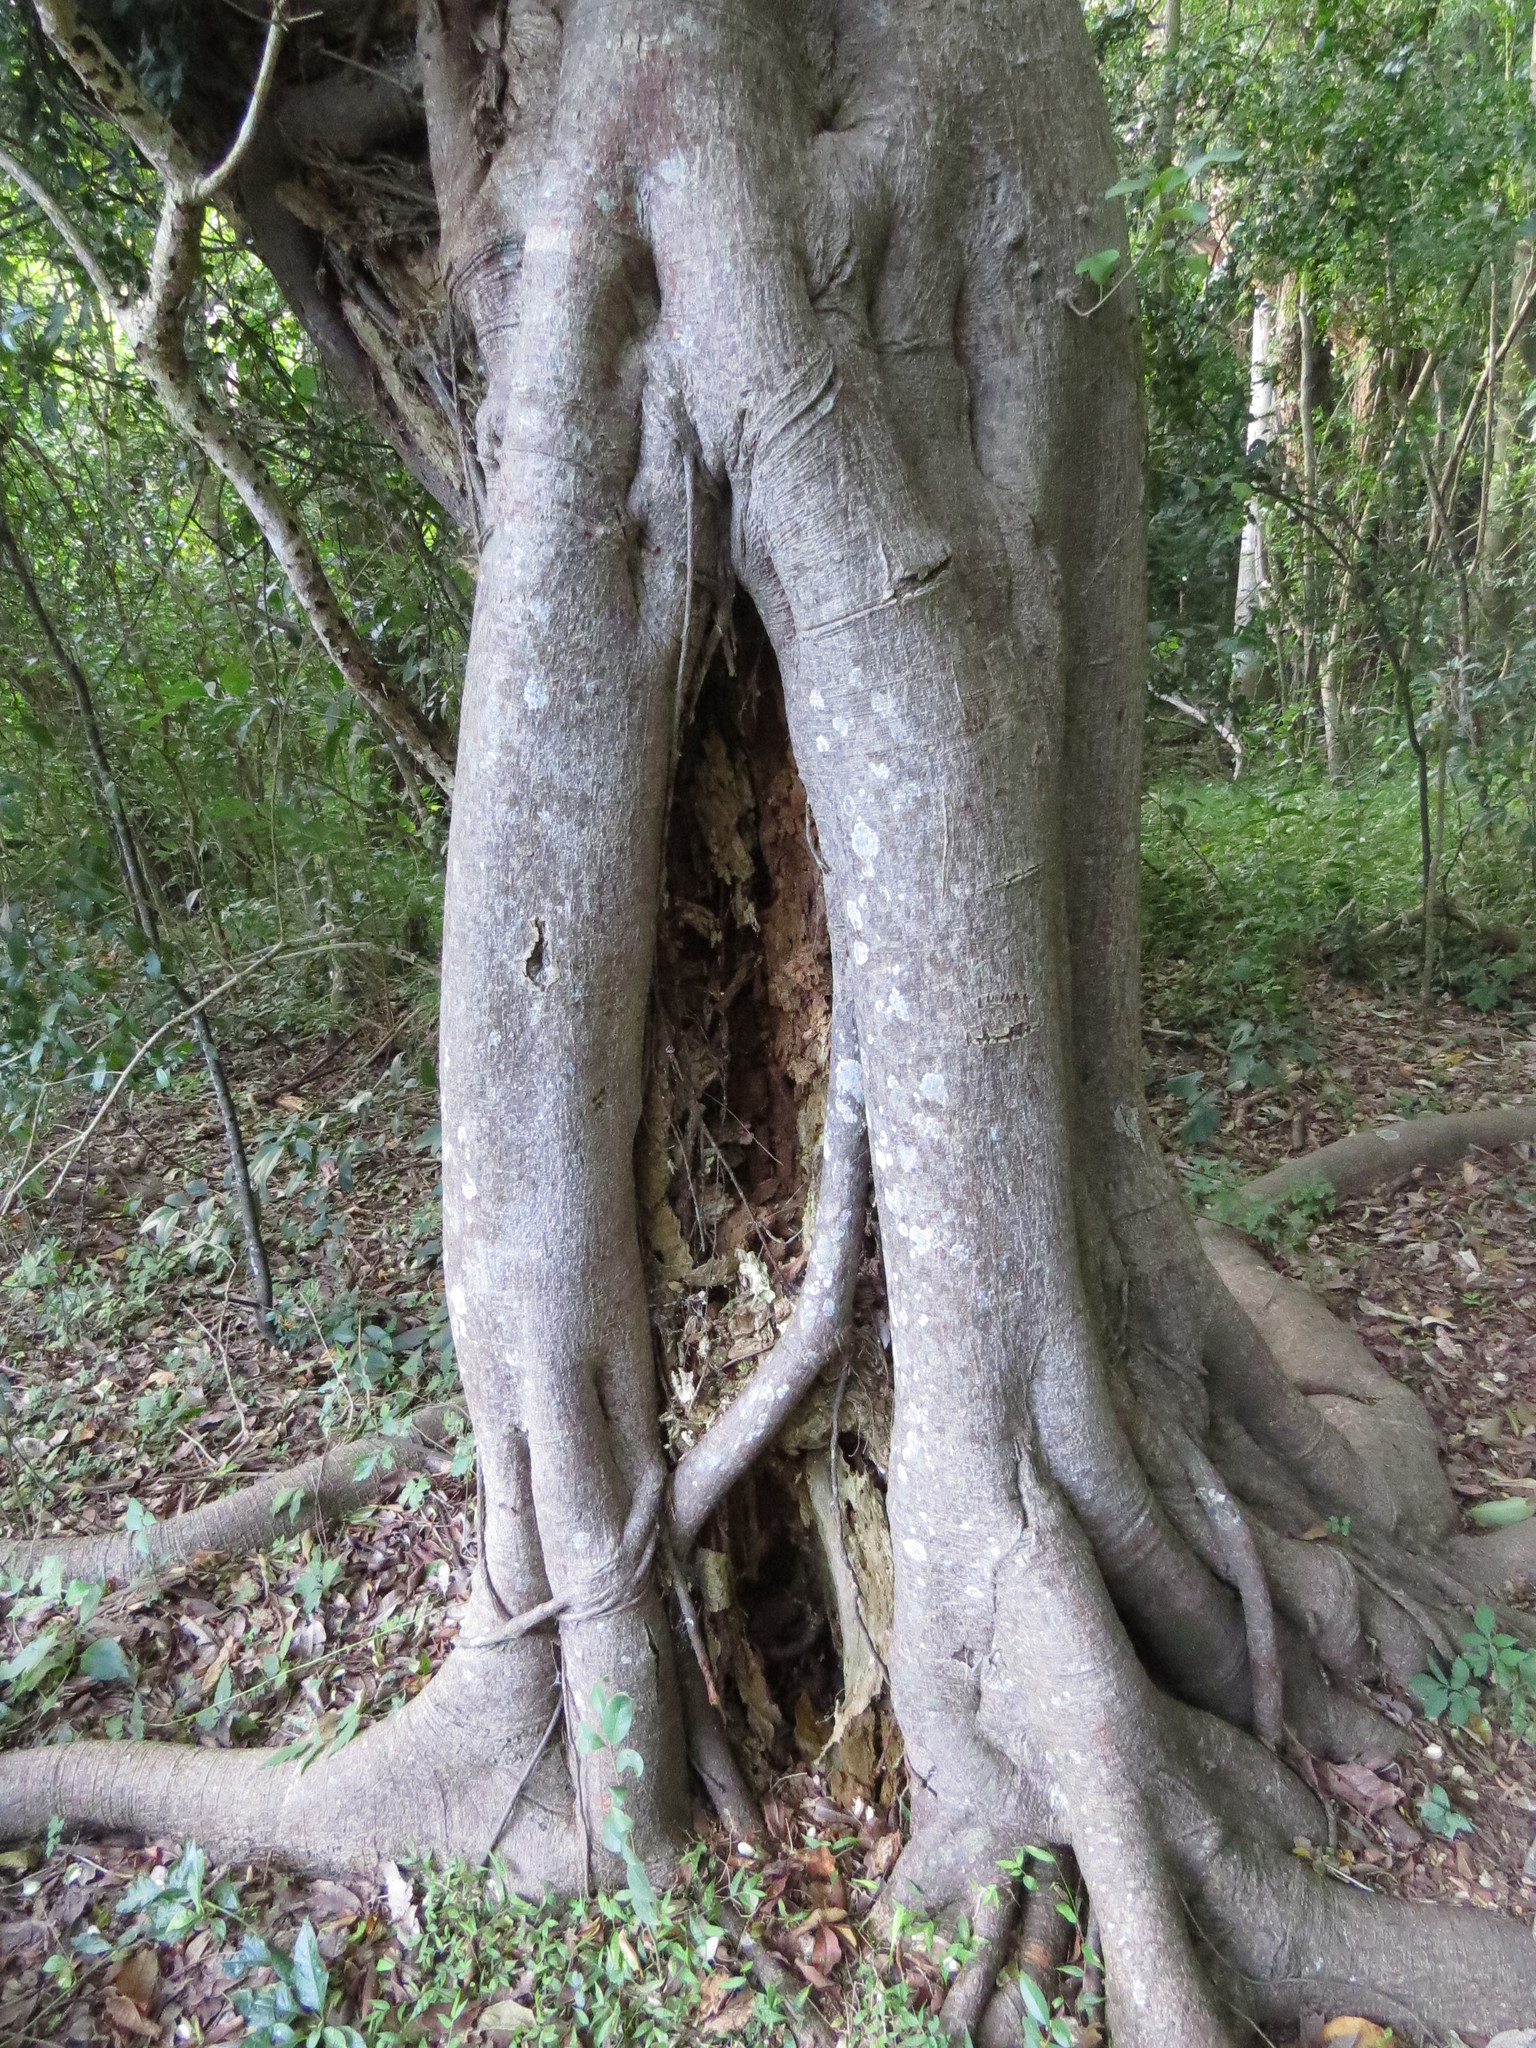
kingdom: Plantae
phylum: Tracheophyta
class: Magnoliopsida
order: Rosales
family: Moraceae
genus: Ficus
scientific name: Ficus luschnathiana
